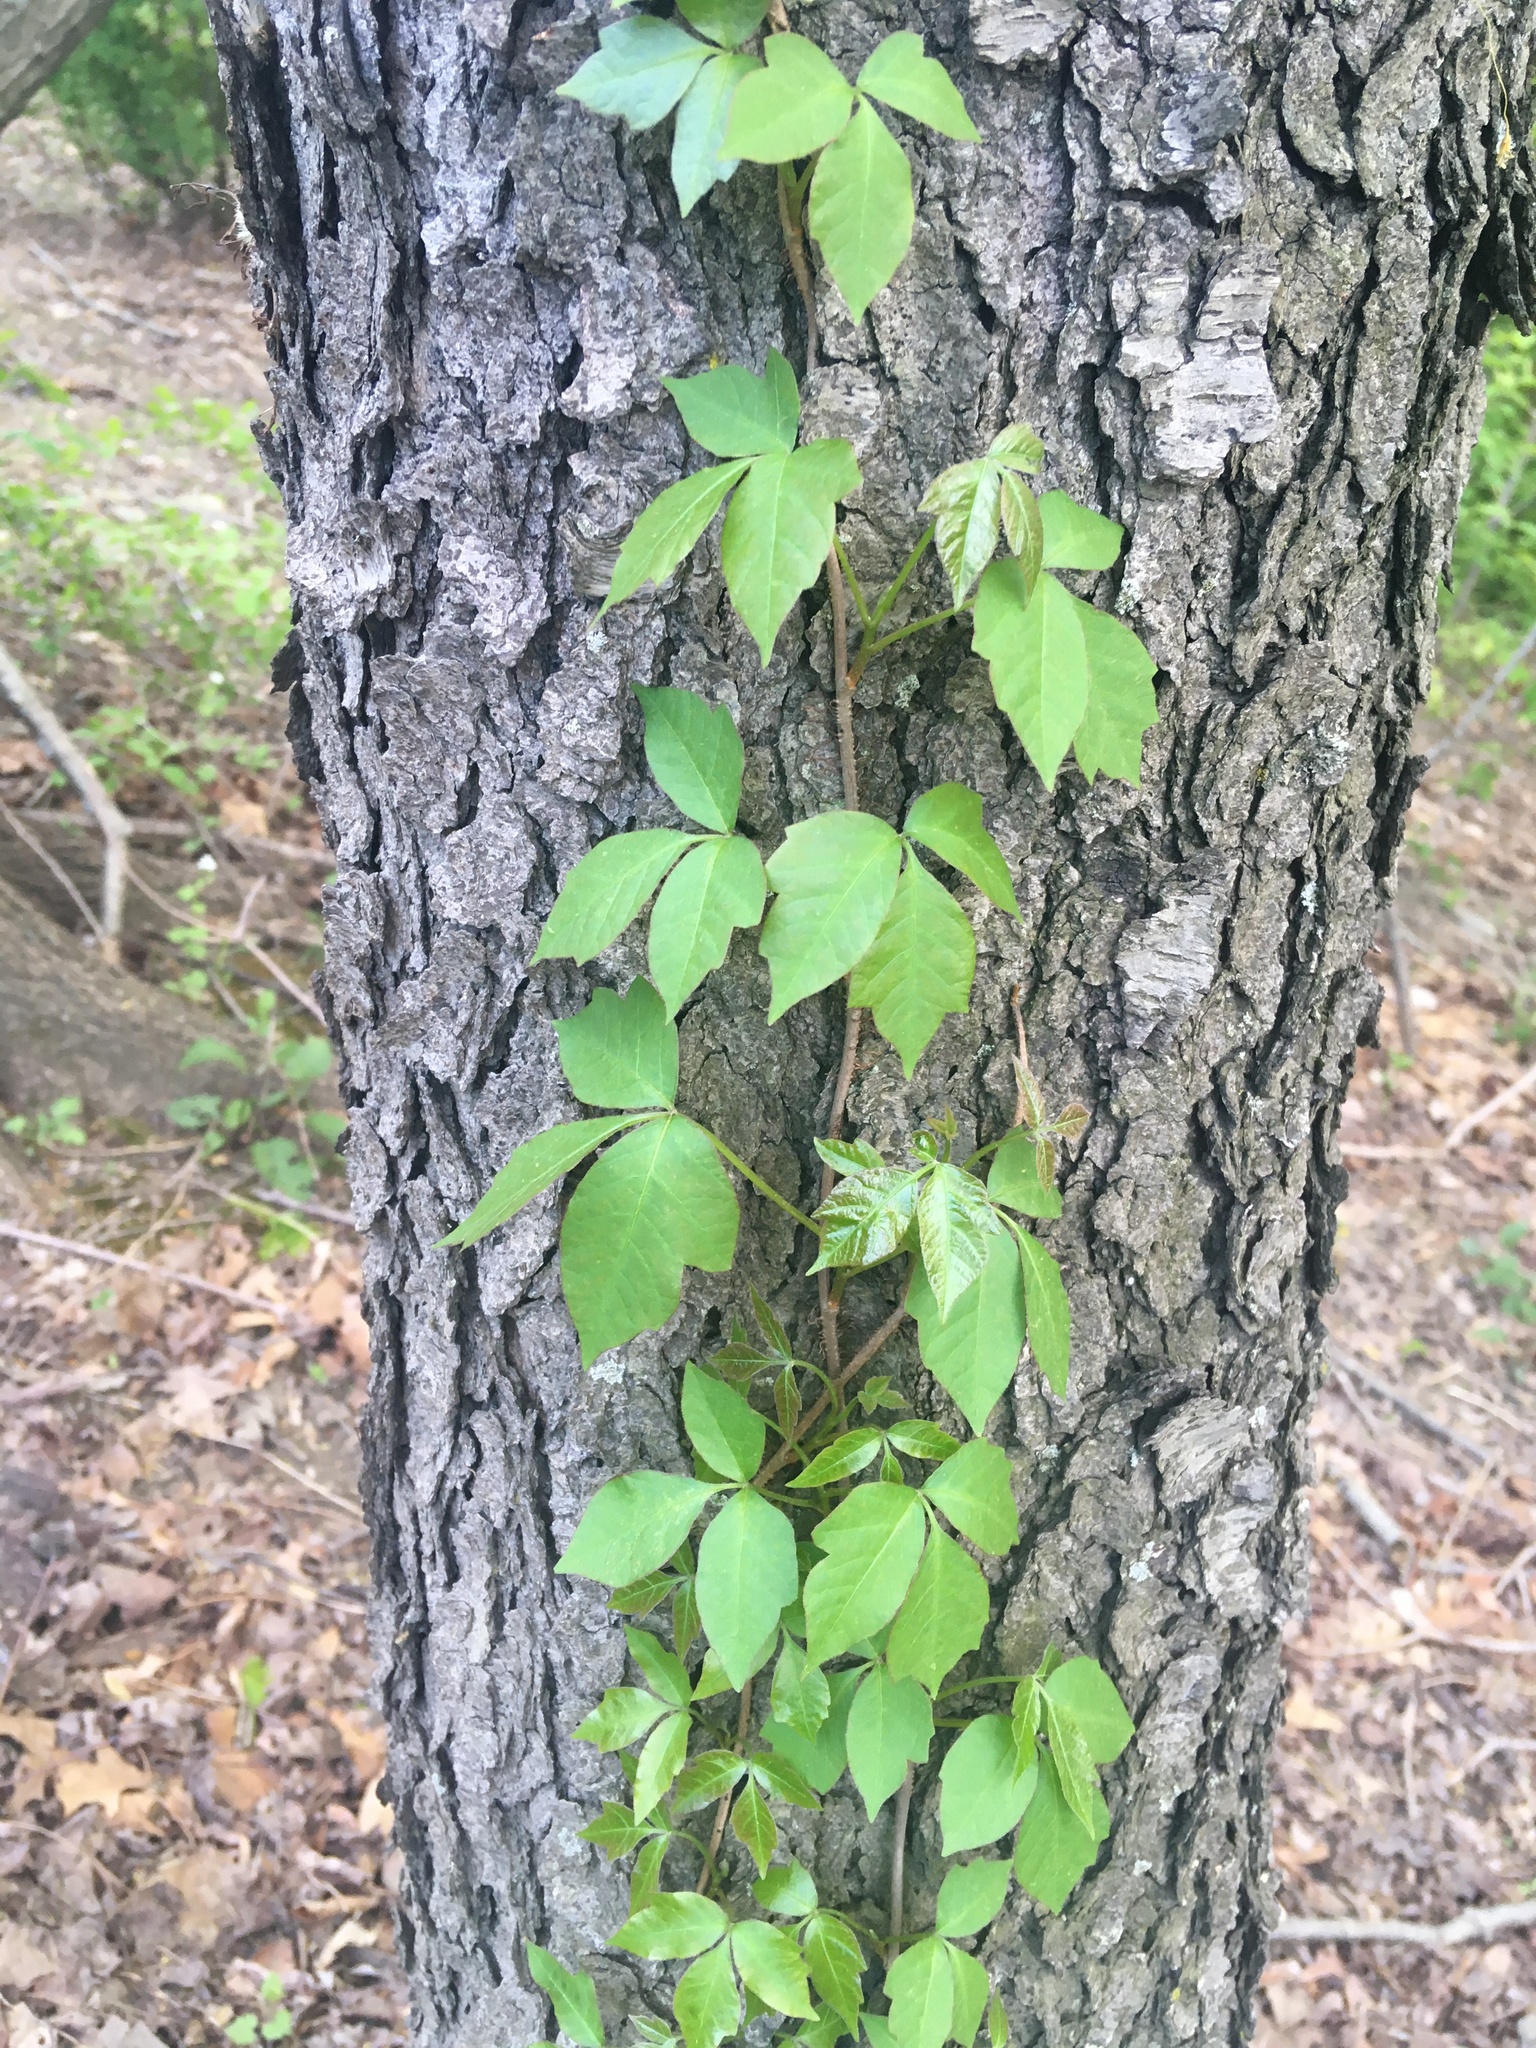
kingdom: Plantae
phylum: Tracheophyta
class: Magnoliopsida
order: Sapindales
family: Anacardiaceae
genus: Toxicodendron
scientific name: Toxicodendron radicans
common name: Poison ivy
